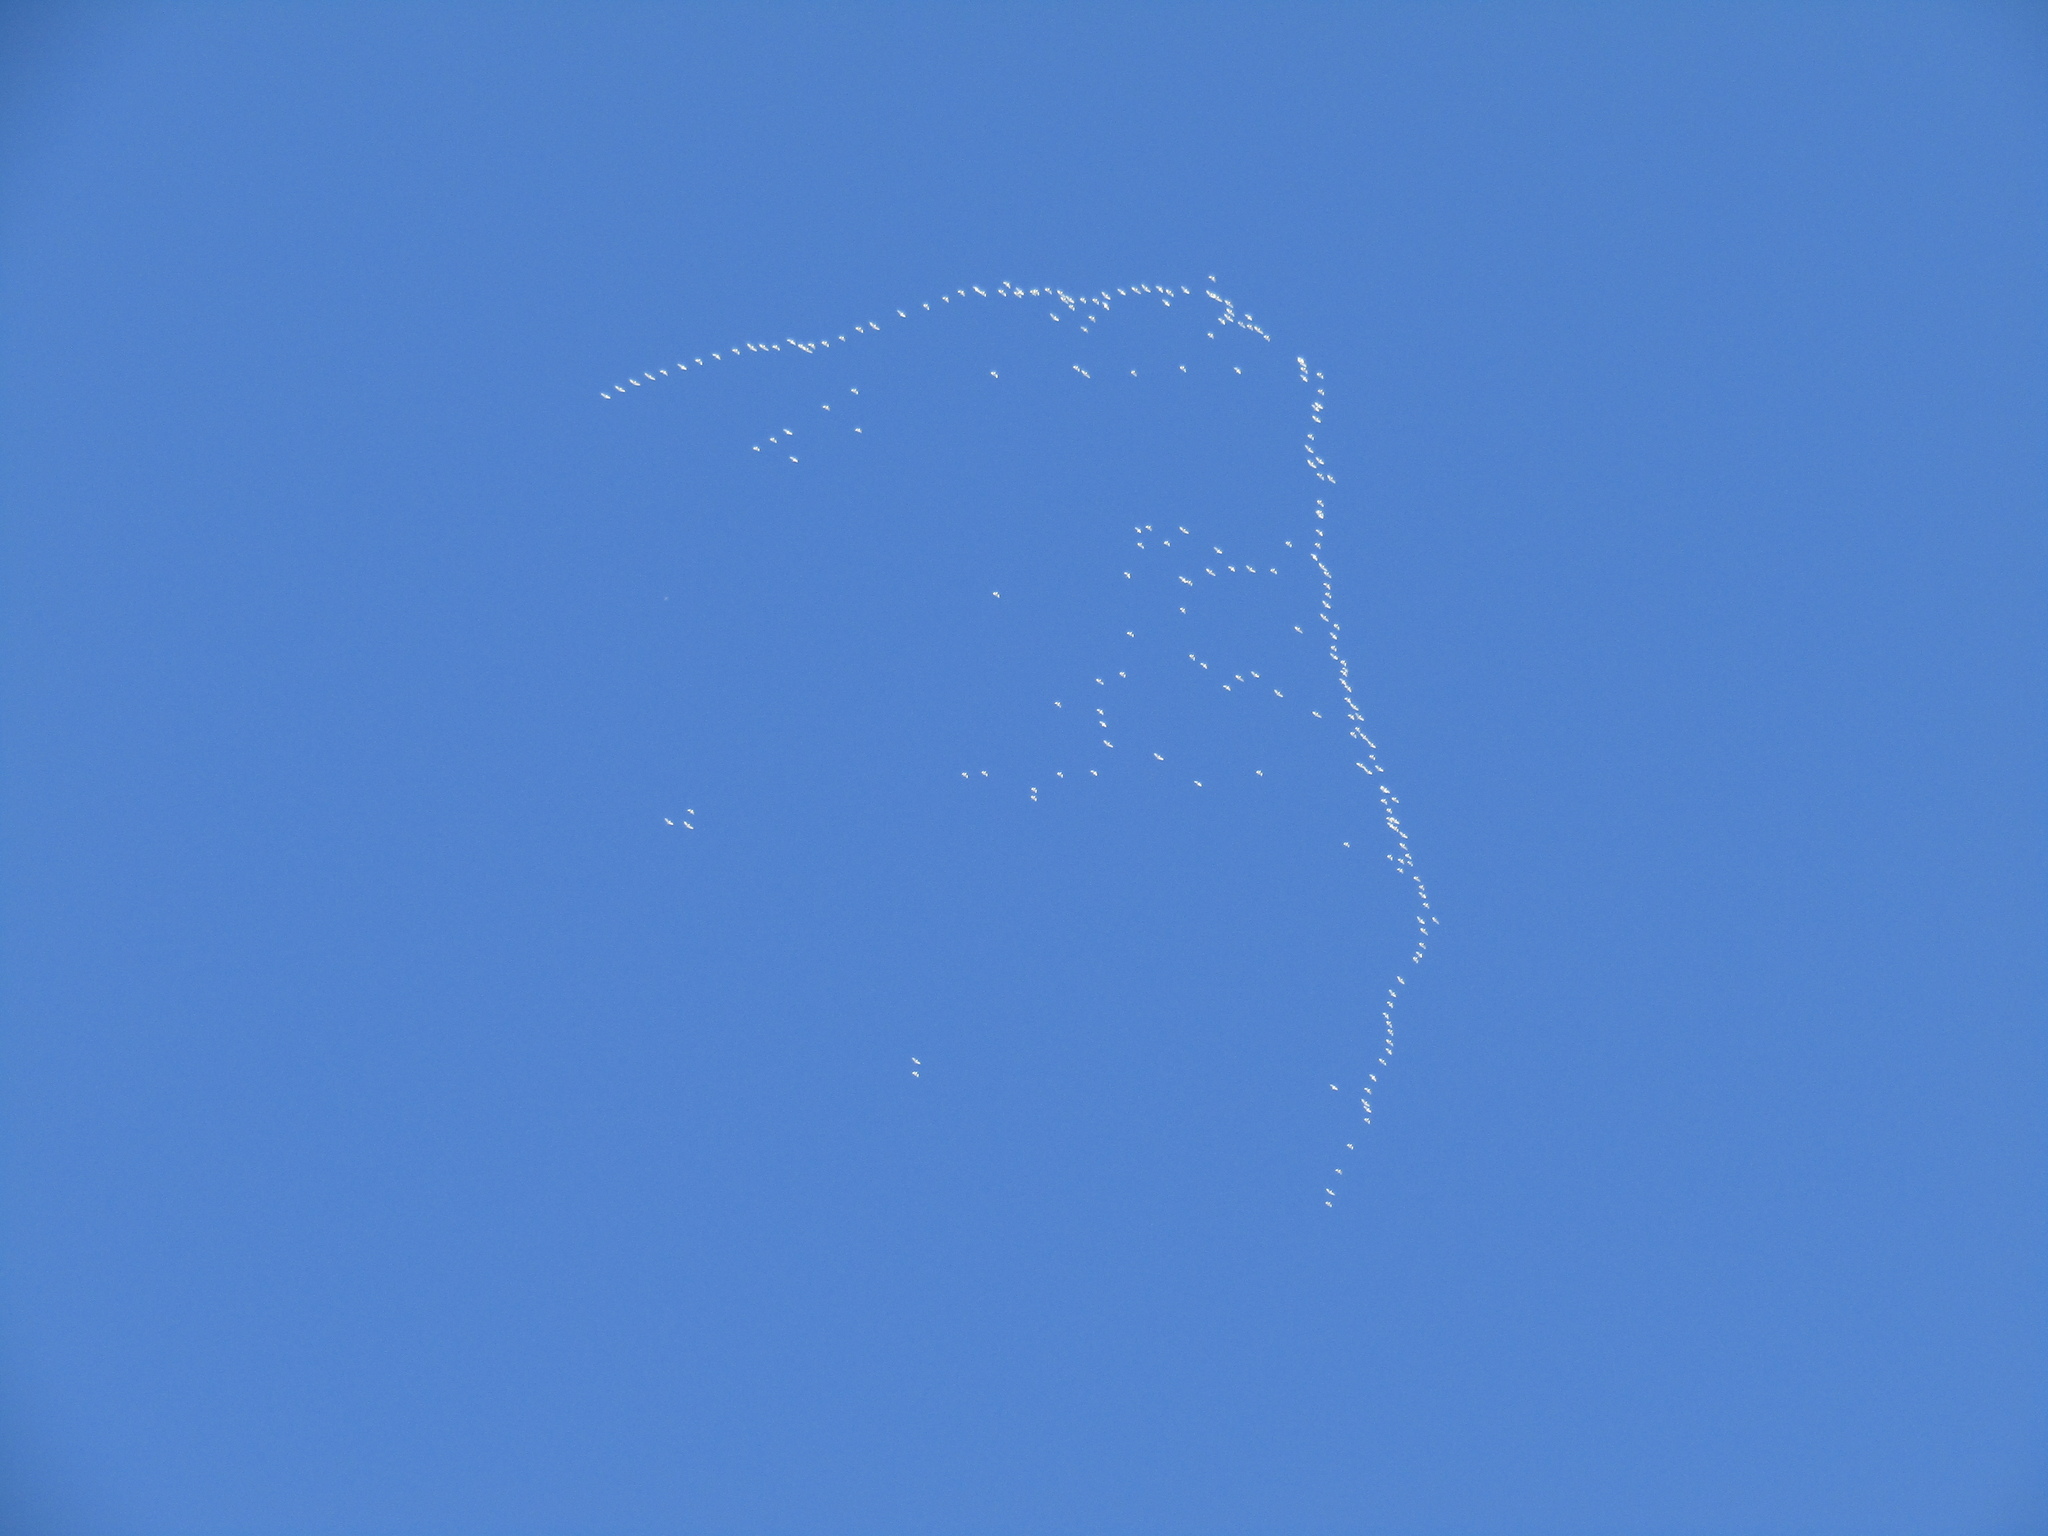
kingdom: Animalia
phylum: Chordata
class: Aves
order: Pelecaniformes
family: Ardeidae
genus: Bubulcus
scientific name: Bubulcus ibis
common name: Cattle egret
